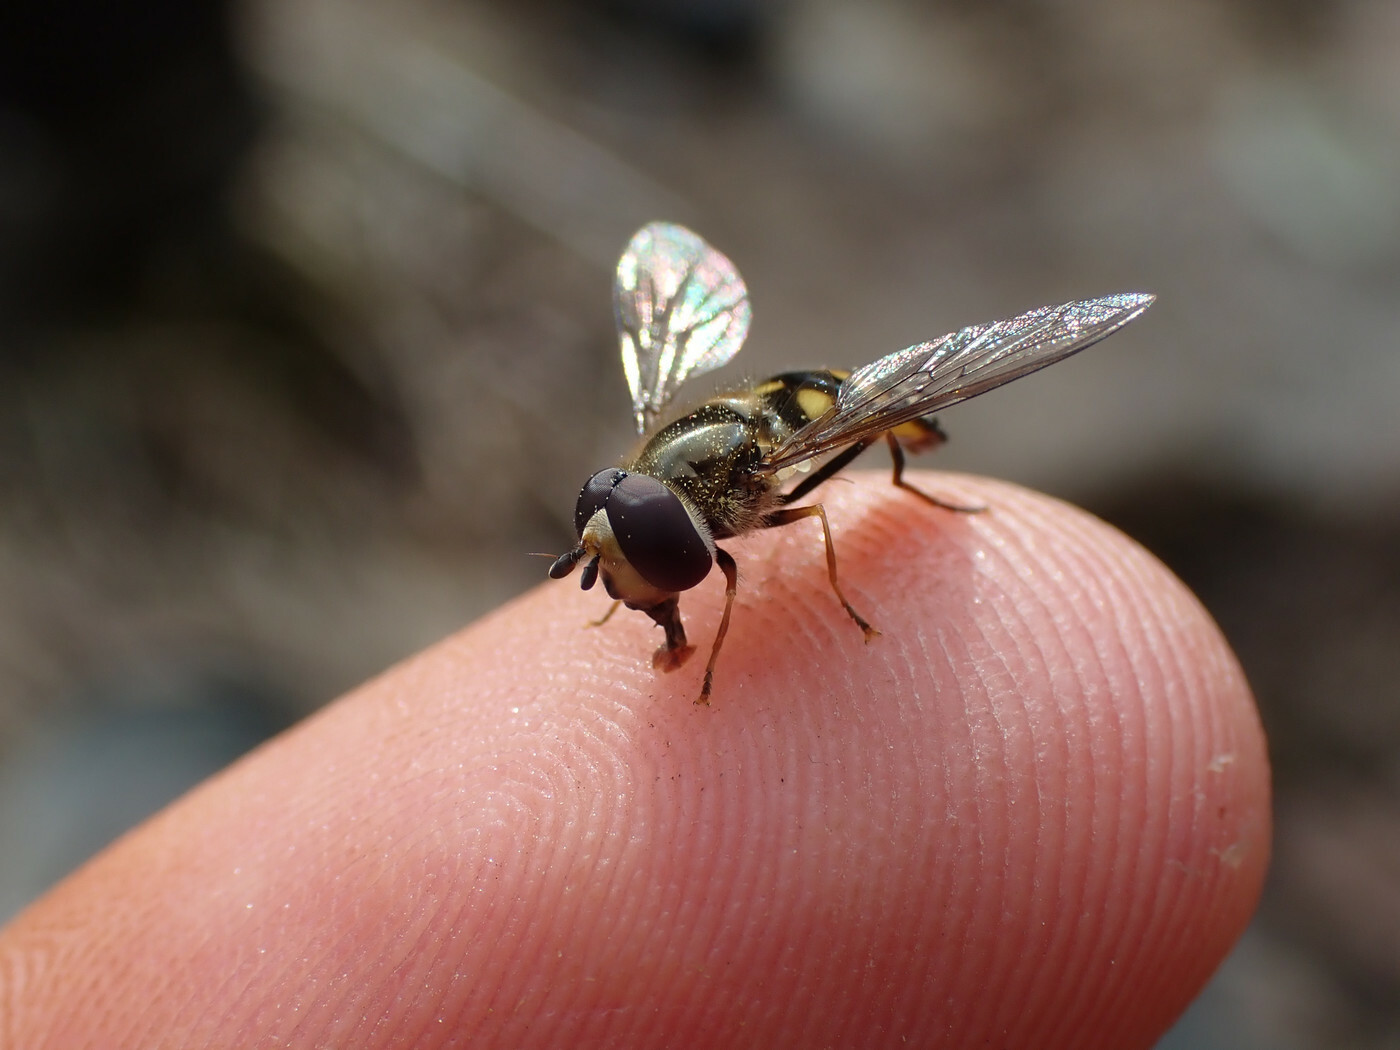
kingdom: Animalia
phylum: Arthropoda
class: Insecta
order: Diptera
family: Syrphidae
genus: Eupeodes
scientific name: Eupeodes
